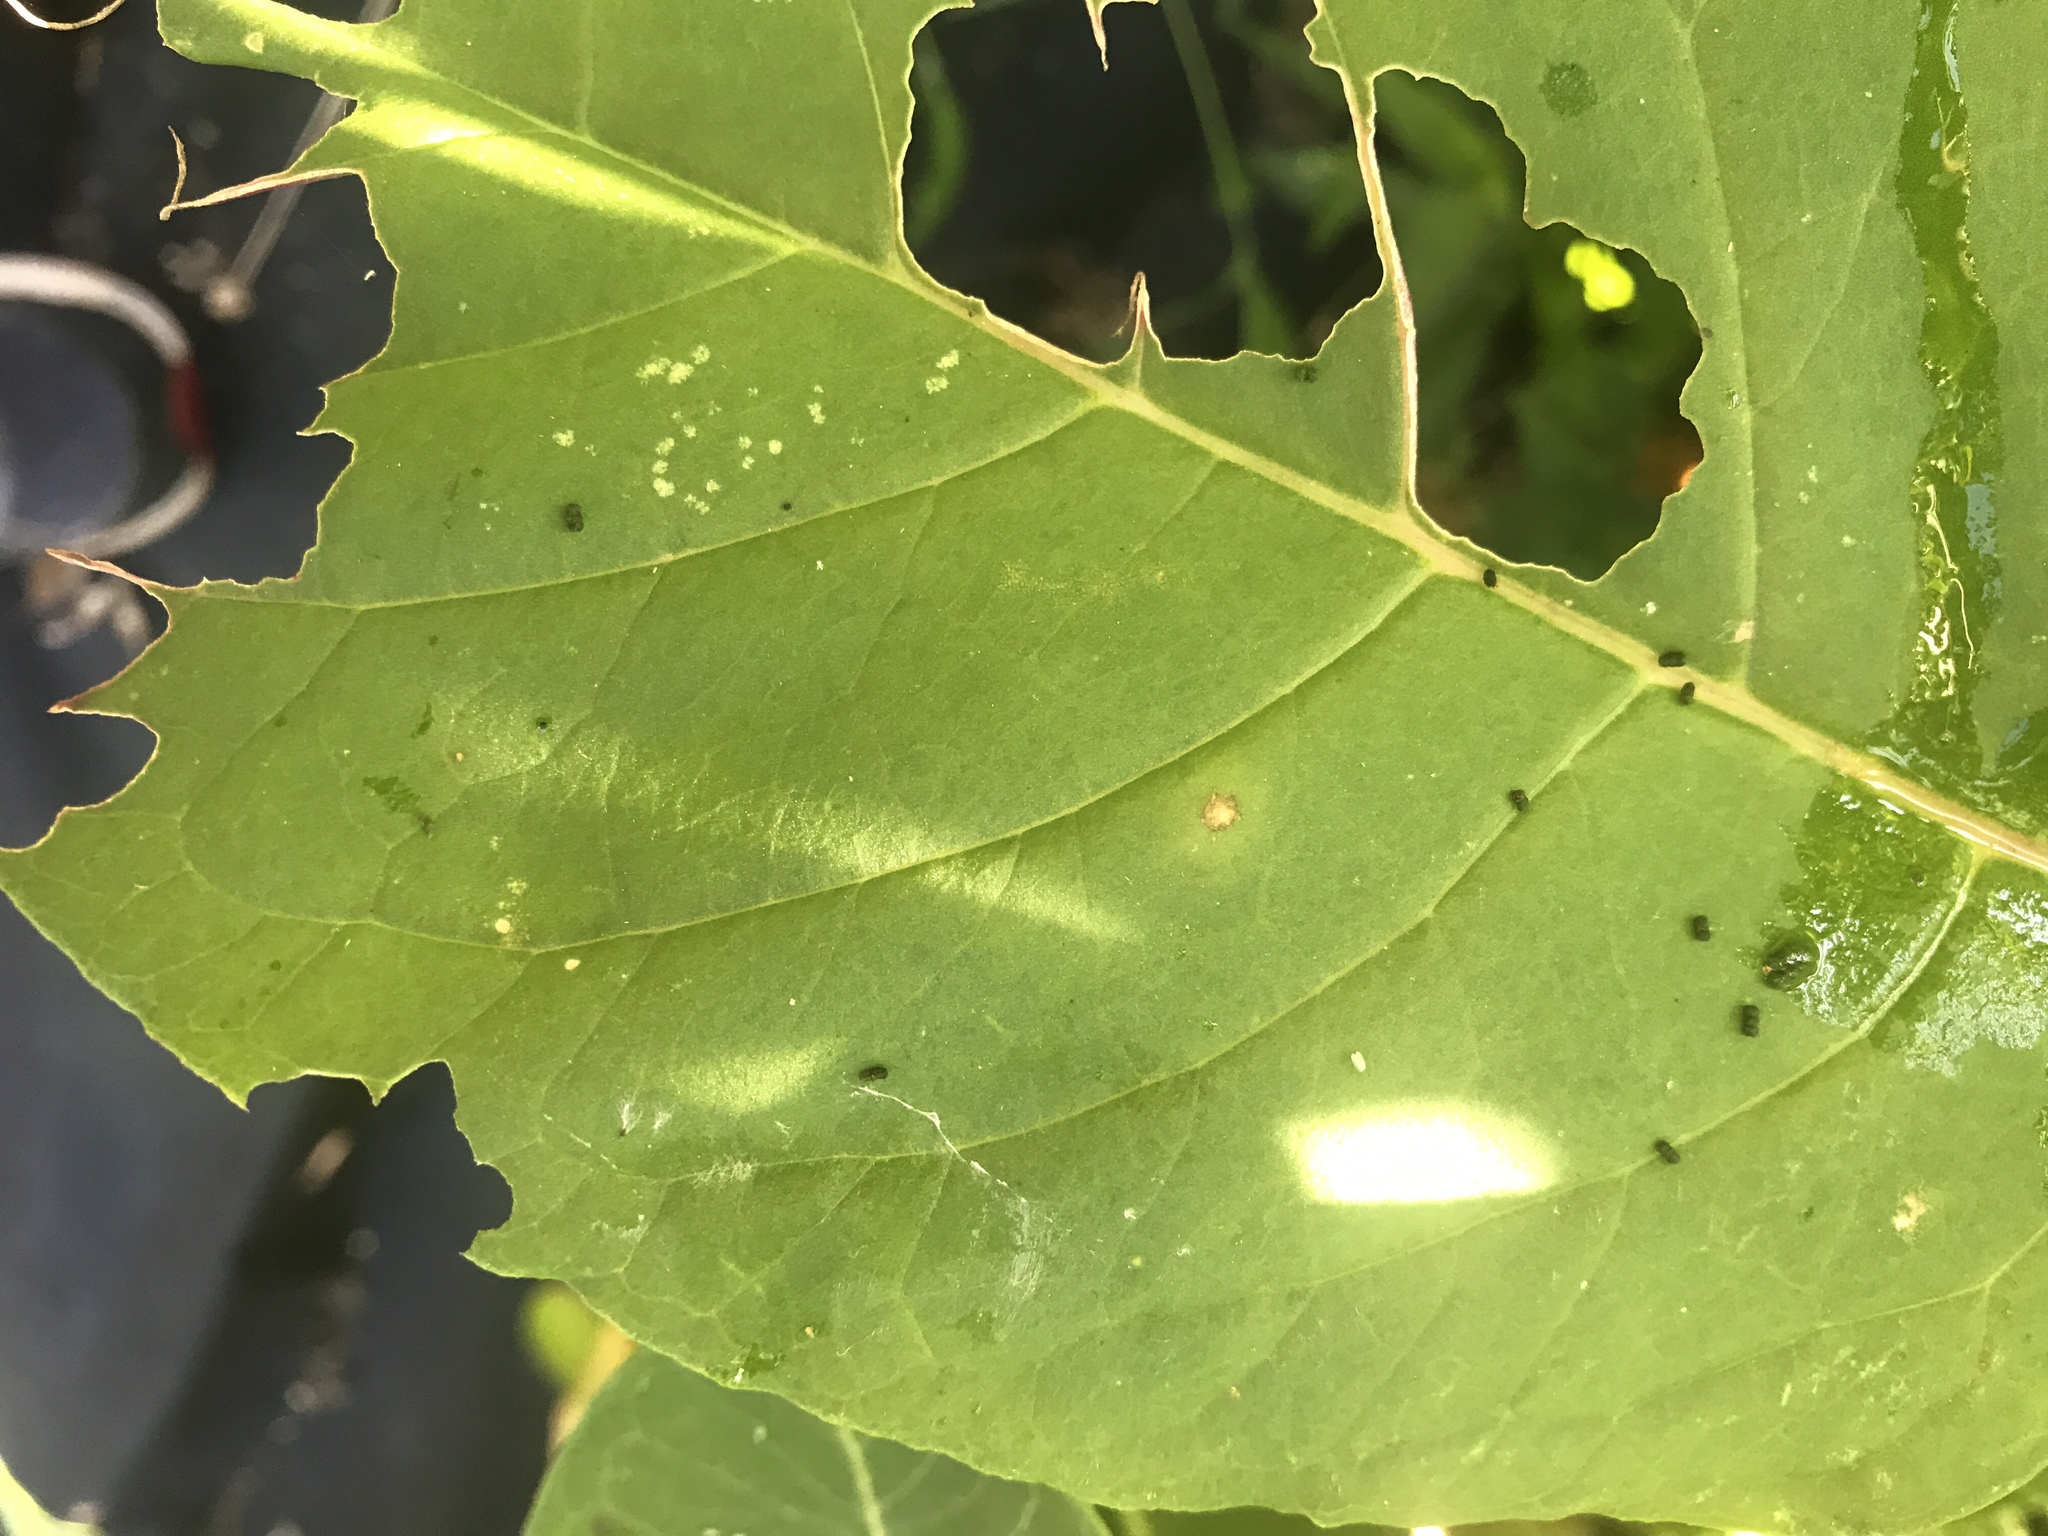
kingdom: Plantae
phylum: Tracheophyta
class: Magnoliopsida
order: Caryophyllales
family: Phytolaccaceae
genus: Phytolacca
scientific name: Phytolacca americana
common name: American pokeweed
